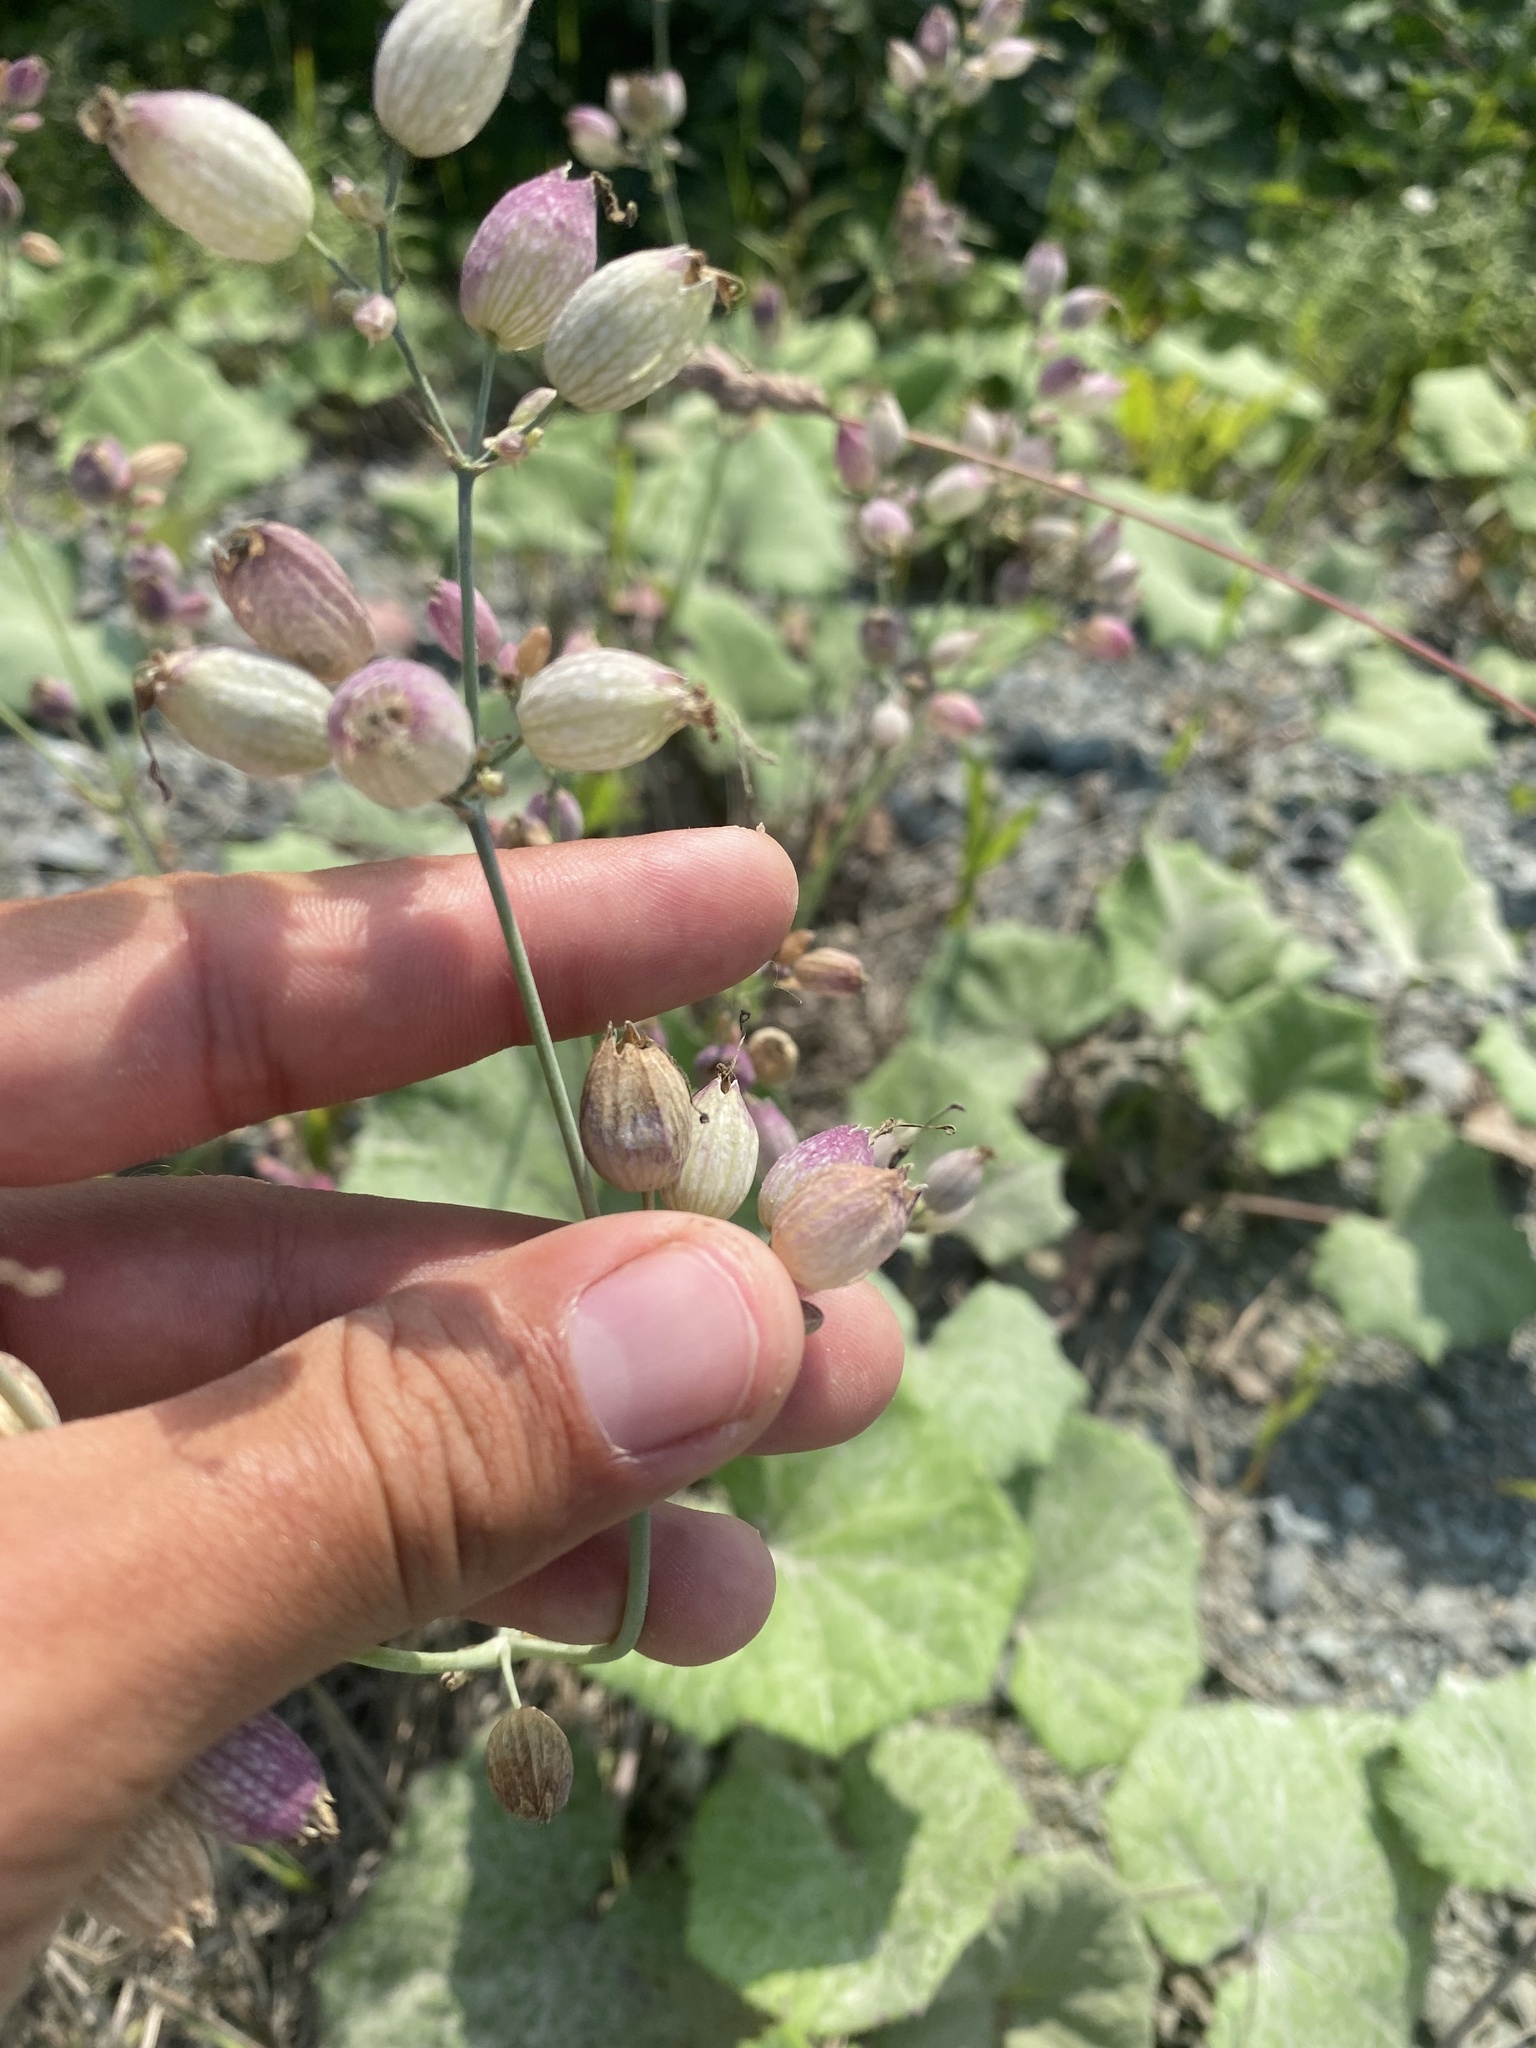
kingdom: Plantae
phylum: Tracheophyta
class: Magnoliopsida
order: Caryophyllales
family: Caryophyllaceae
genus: Silene
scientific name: Silene vulgaris
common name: Bladder campion
